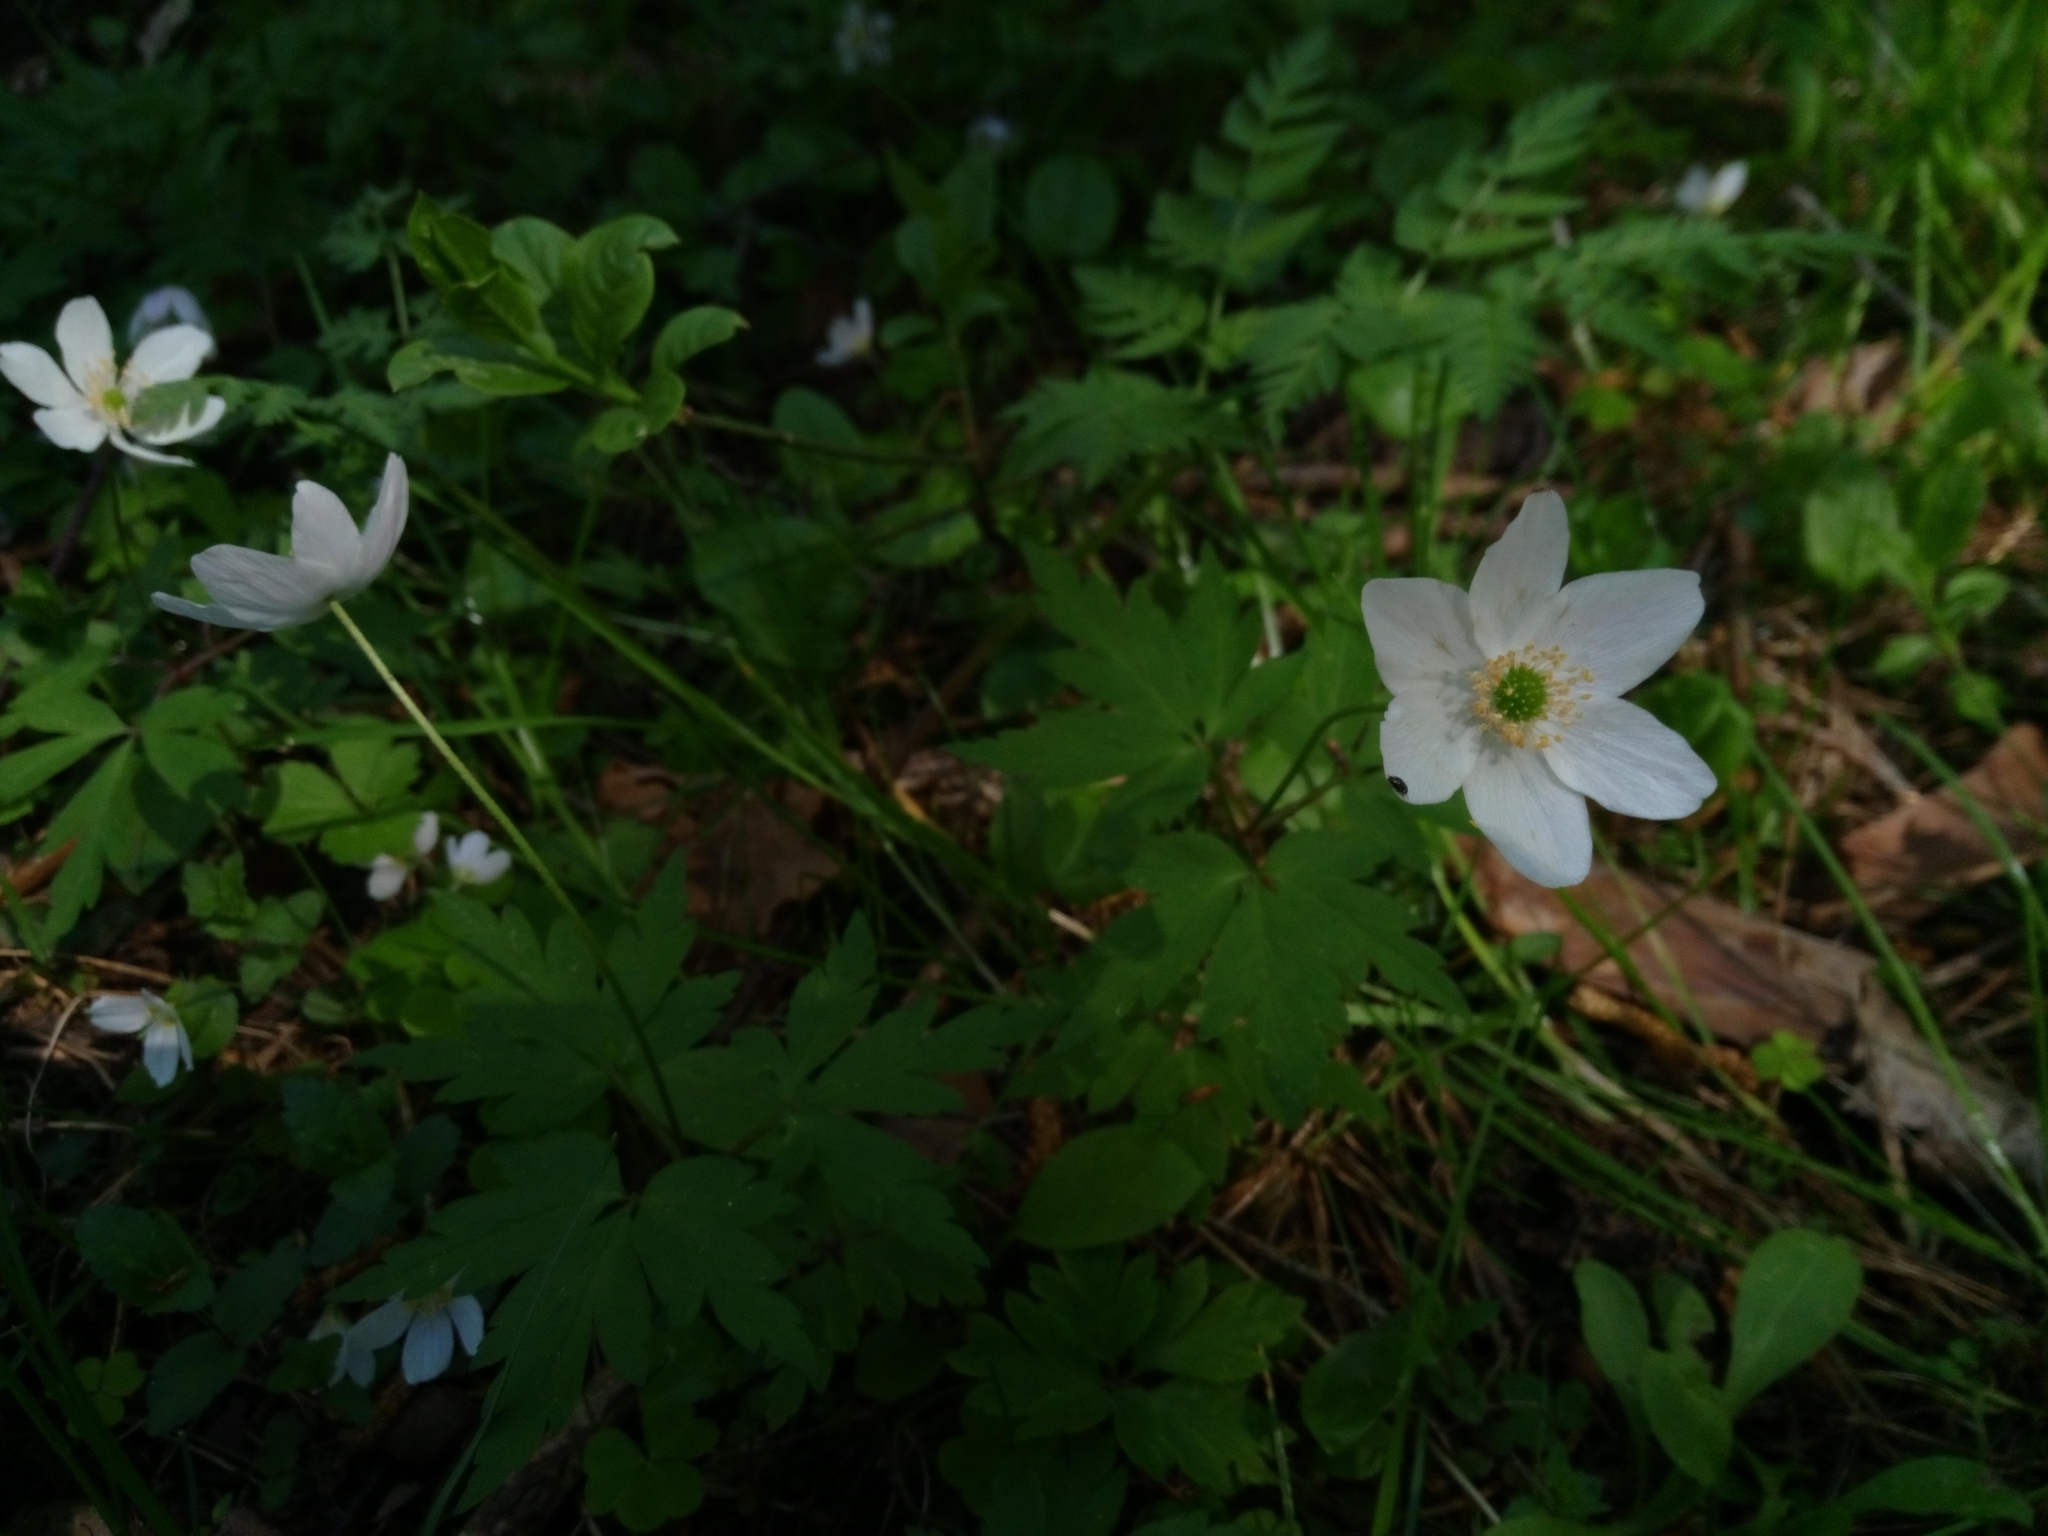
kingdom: Plantae
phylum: Tracheophyta
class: Magnoliopsida
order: Ranunculales
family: Ranunculaceae
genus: Anemone
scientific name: Anemone nemorosa
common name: Wood anemone
